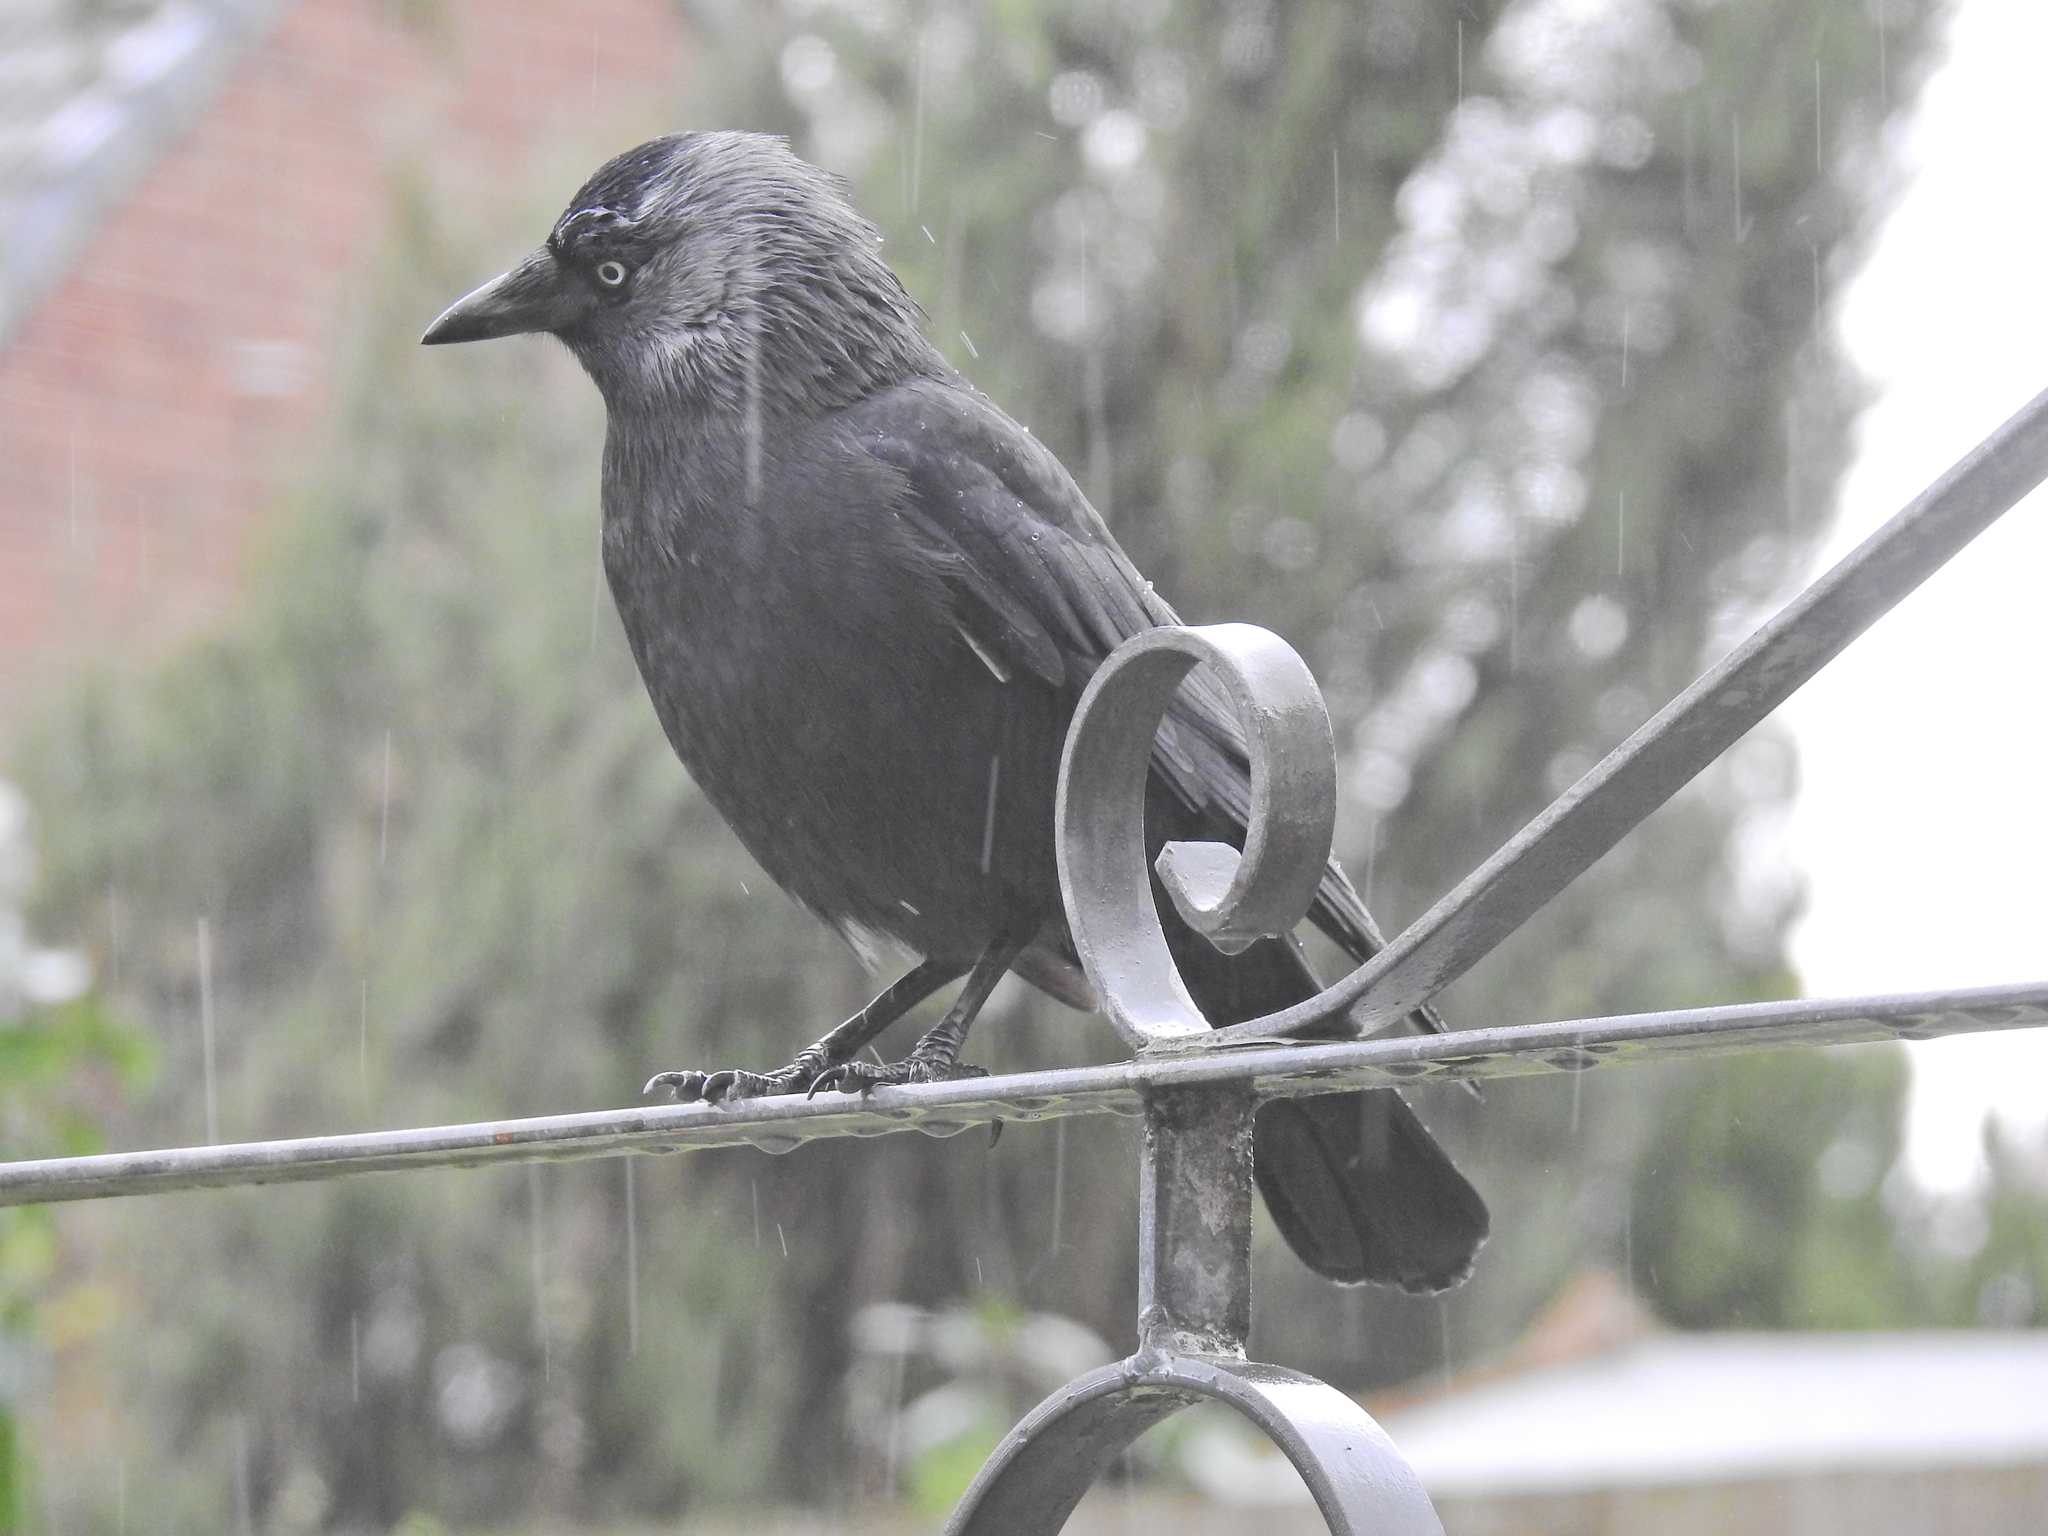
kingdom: Animalia
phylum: Chordata
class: Aves
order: Passeriformes
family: Corvidae
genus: Coloeus
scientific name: Coloeus monedula
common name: Western jackdaw
